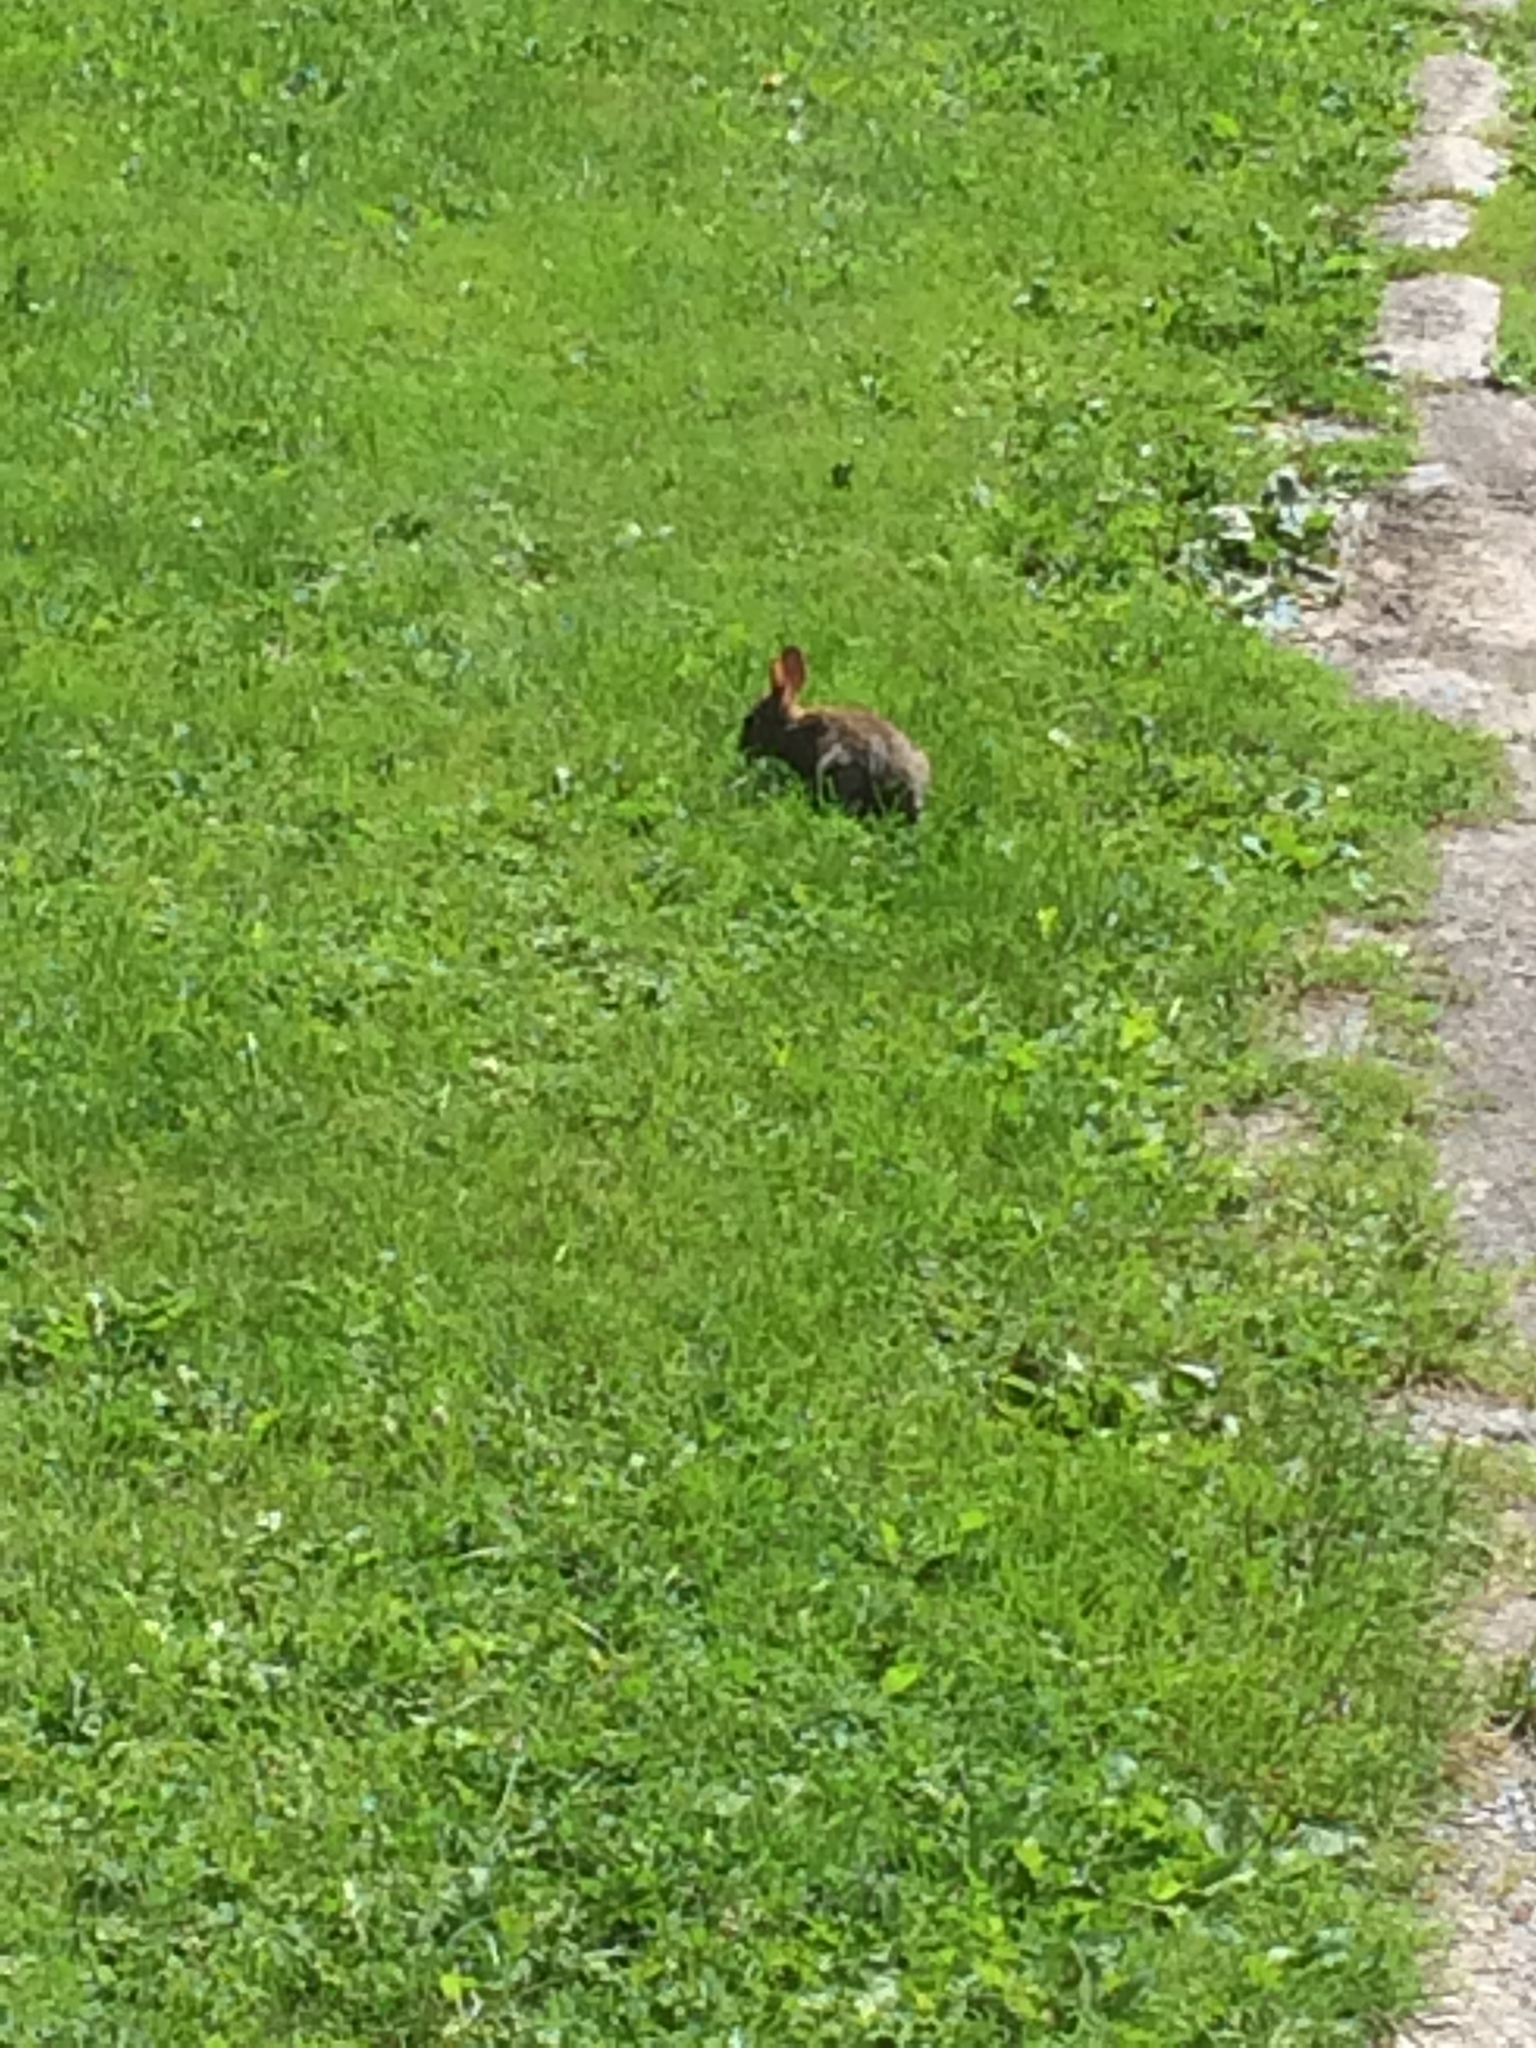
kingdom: Animalia
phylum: Chordata
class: Mammalia
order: Lagomorpha
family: Leporidae
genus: Sylvilagus
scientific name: Sylvilagus floridanus
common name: Eastern cottontail
